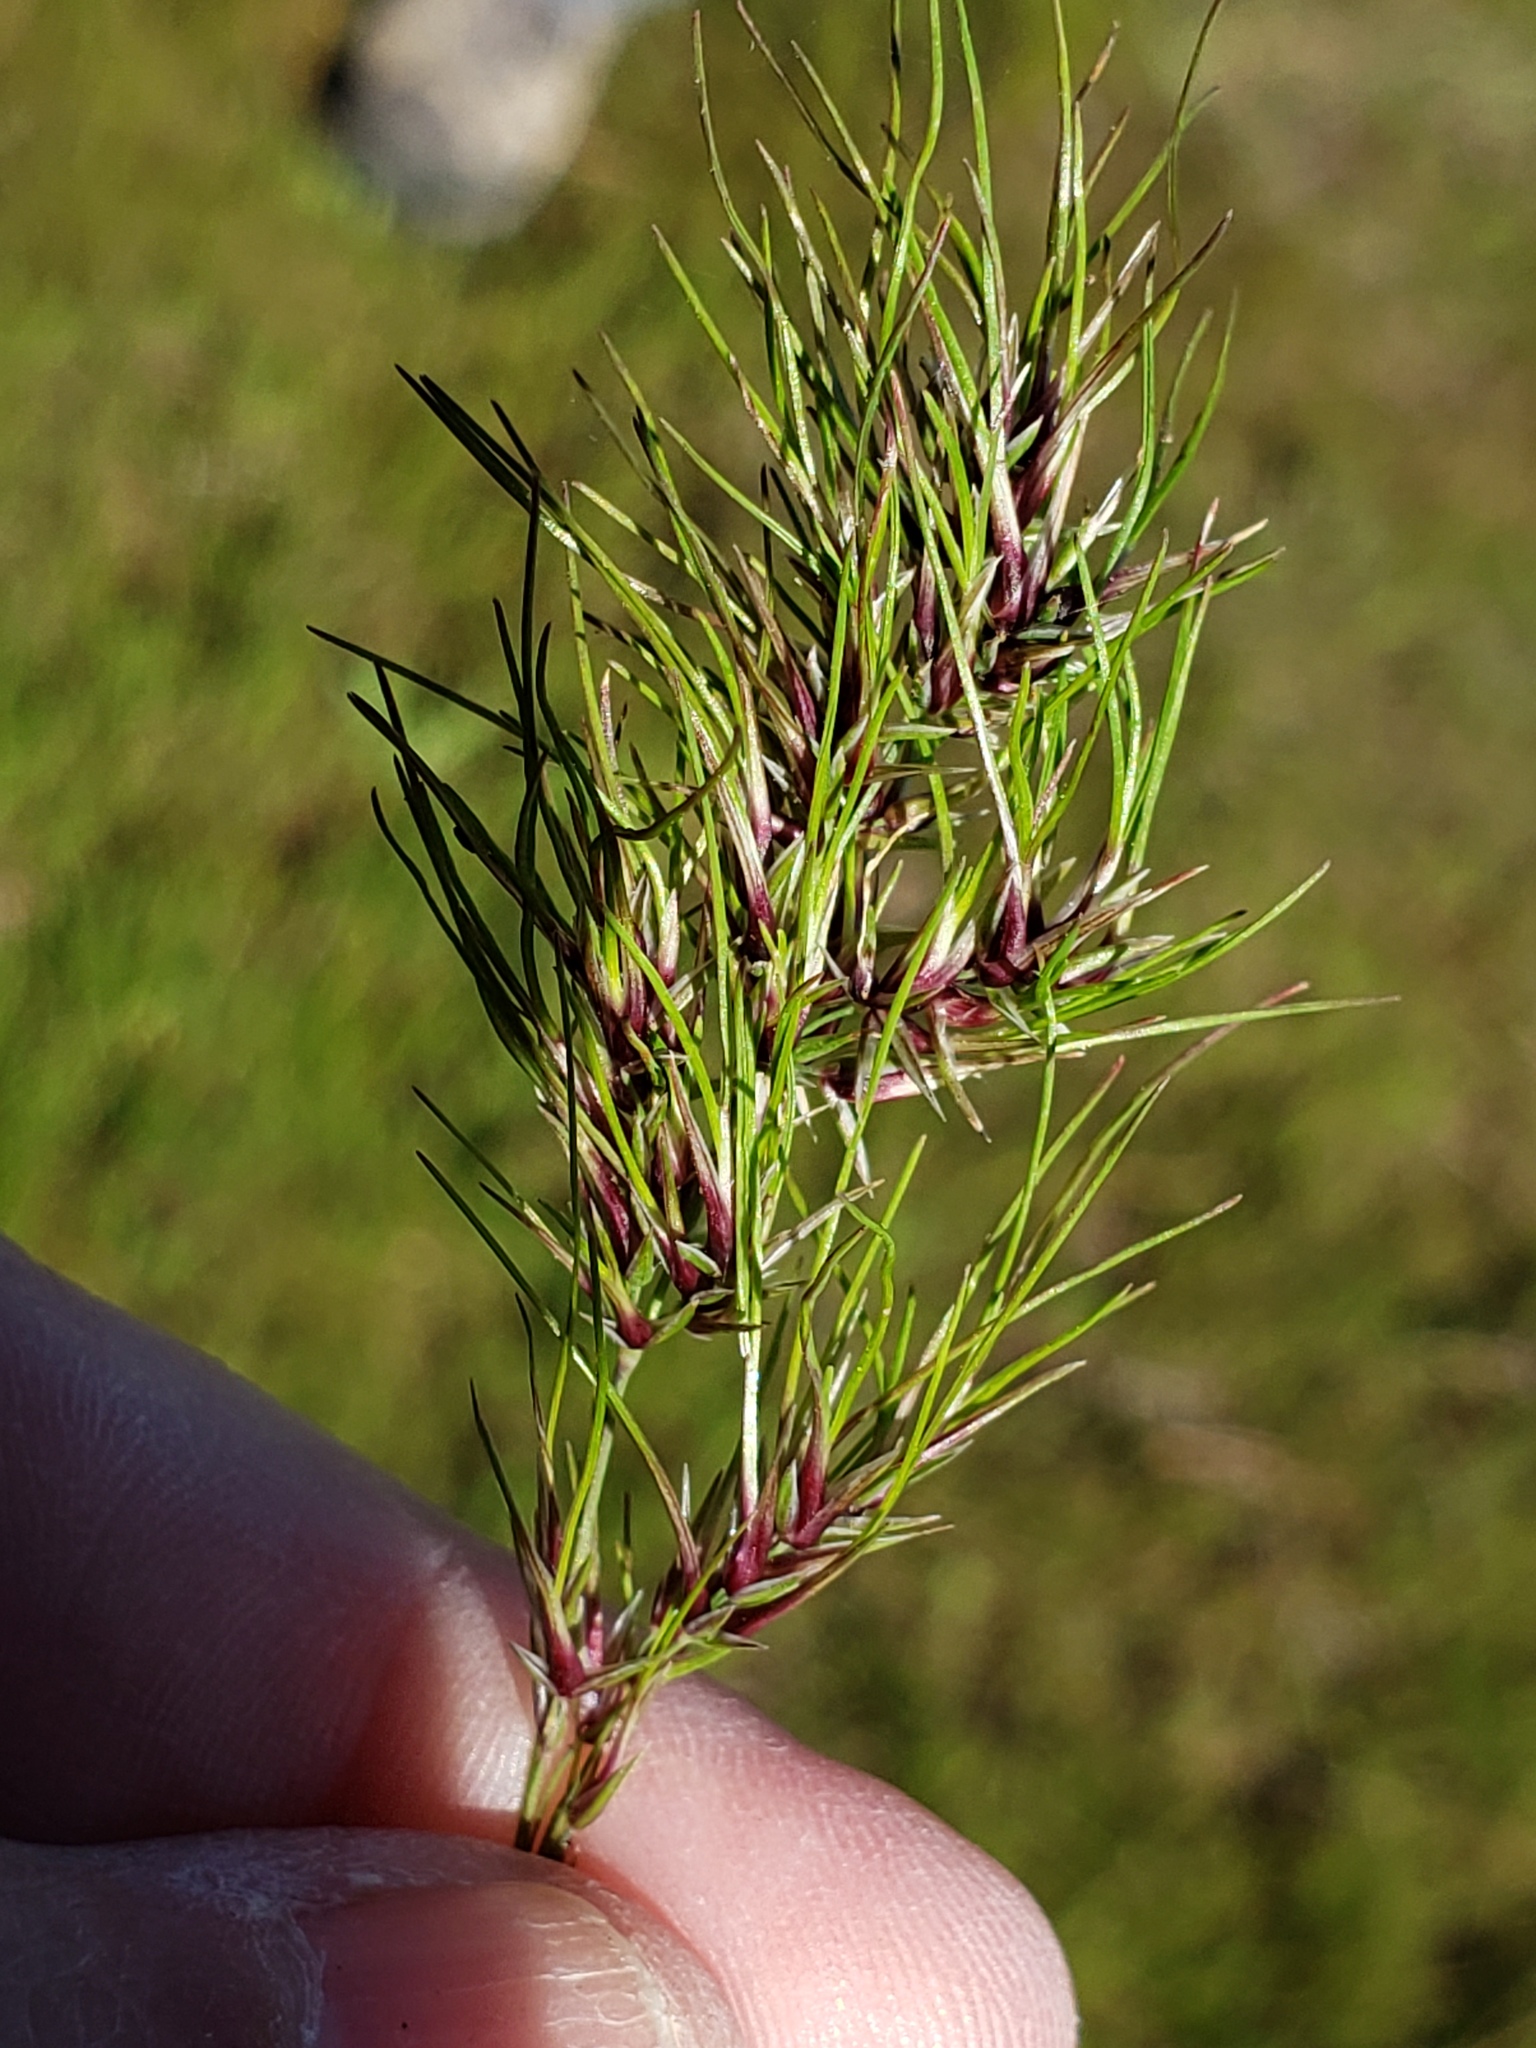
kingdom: Plantae
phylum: Tracheophyta
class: Liliopsida
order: Poales
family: Poaceae
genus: Poa
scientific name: Poa bulbosa
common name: Bulbous bluegrass
